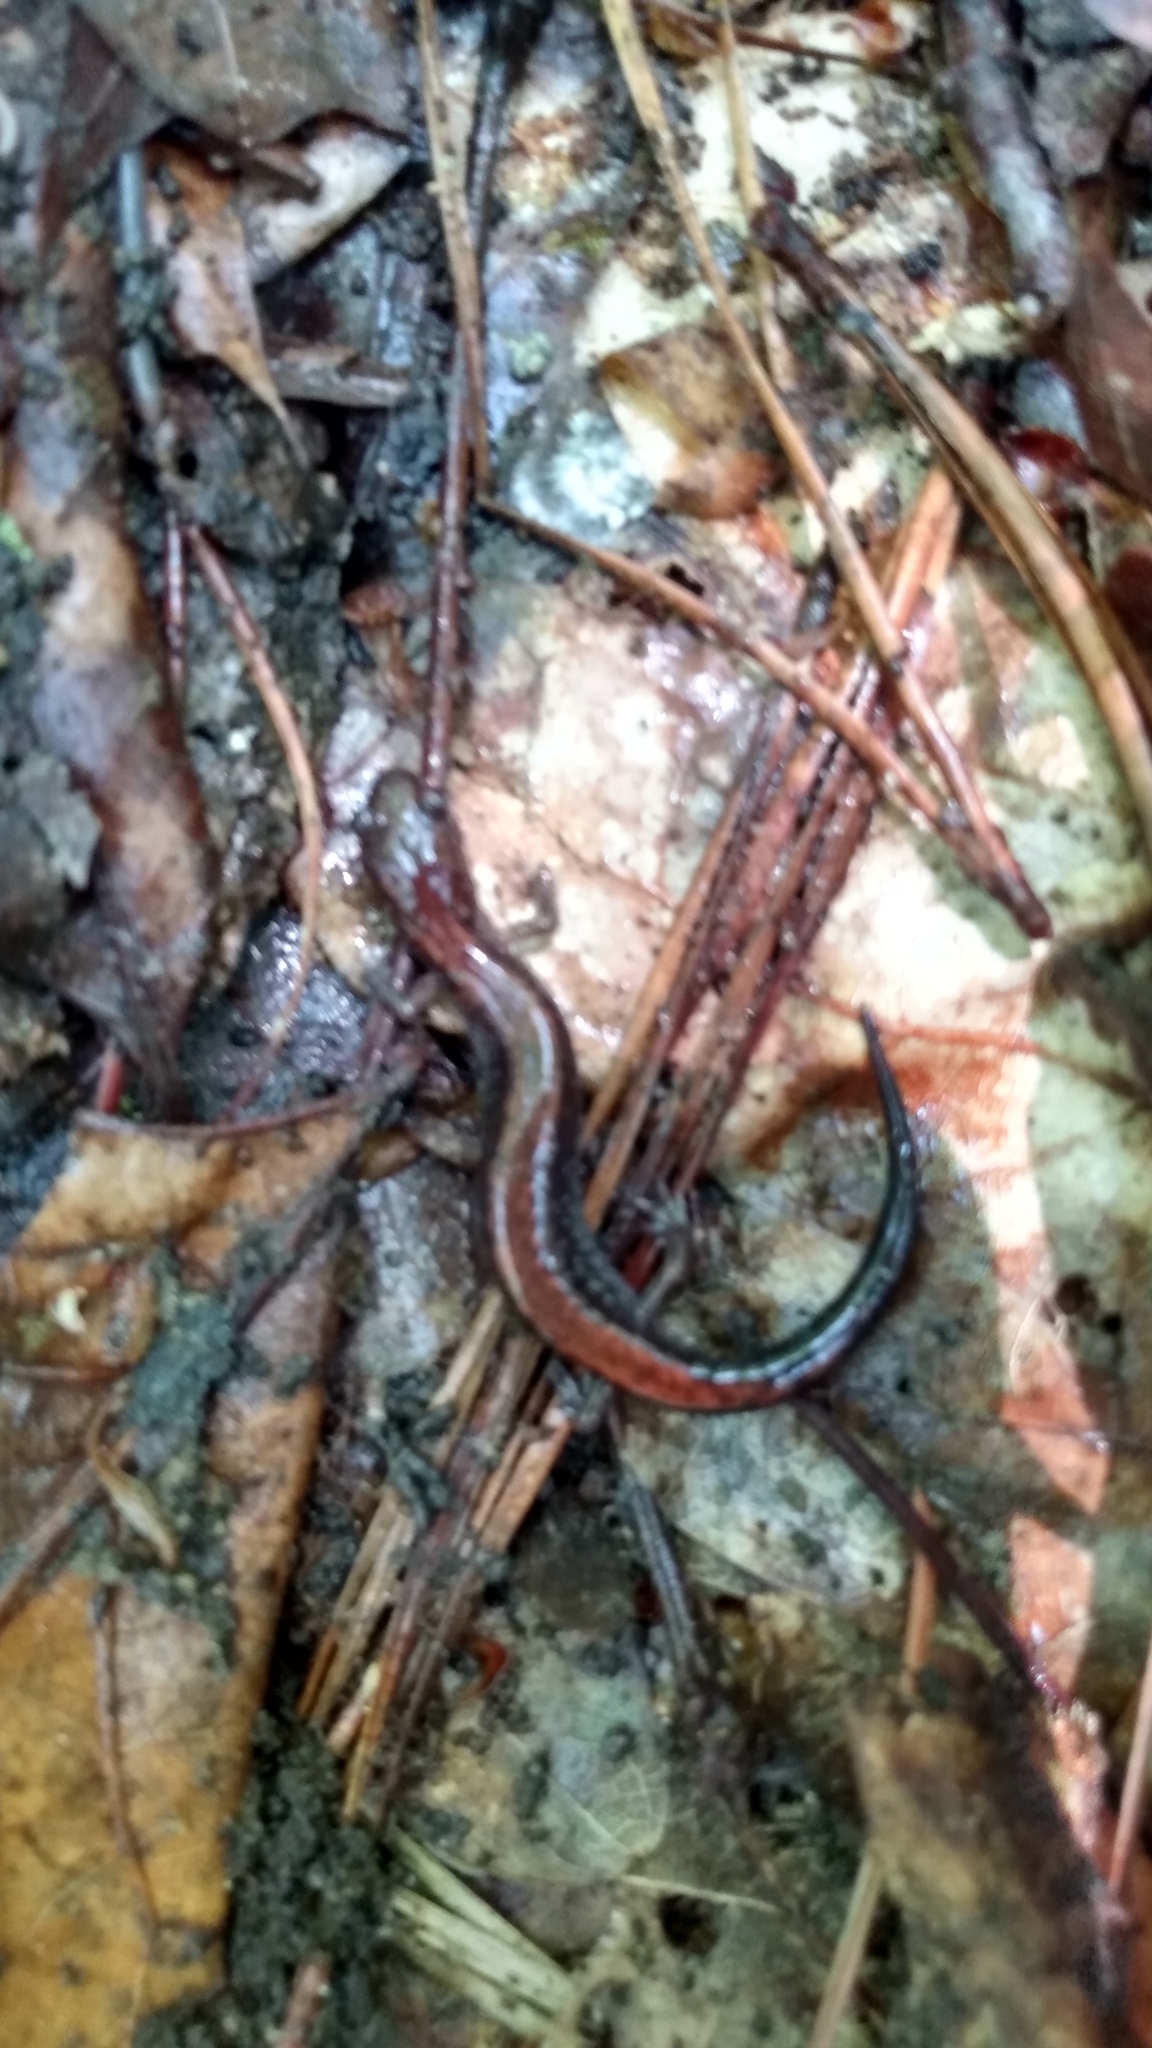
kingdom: Animalia
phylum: Chordata
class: Amphibia
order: Caudata
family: Plethodontidae
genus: Plethodon
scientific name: Plethodon cinereus
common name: Redback salamander
